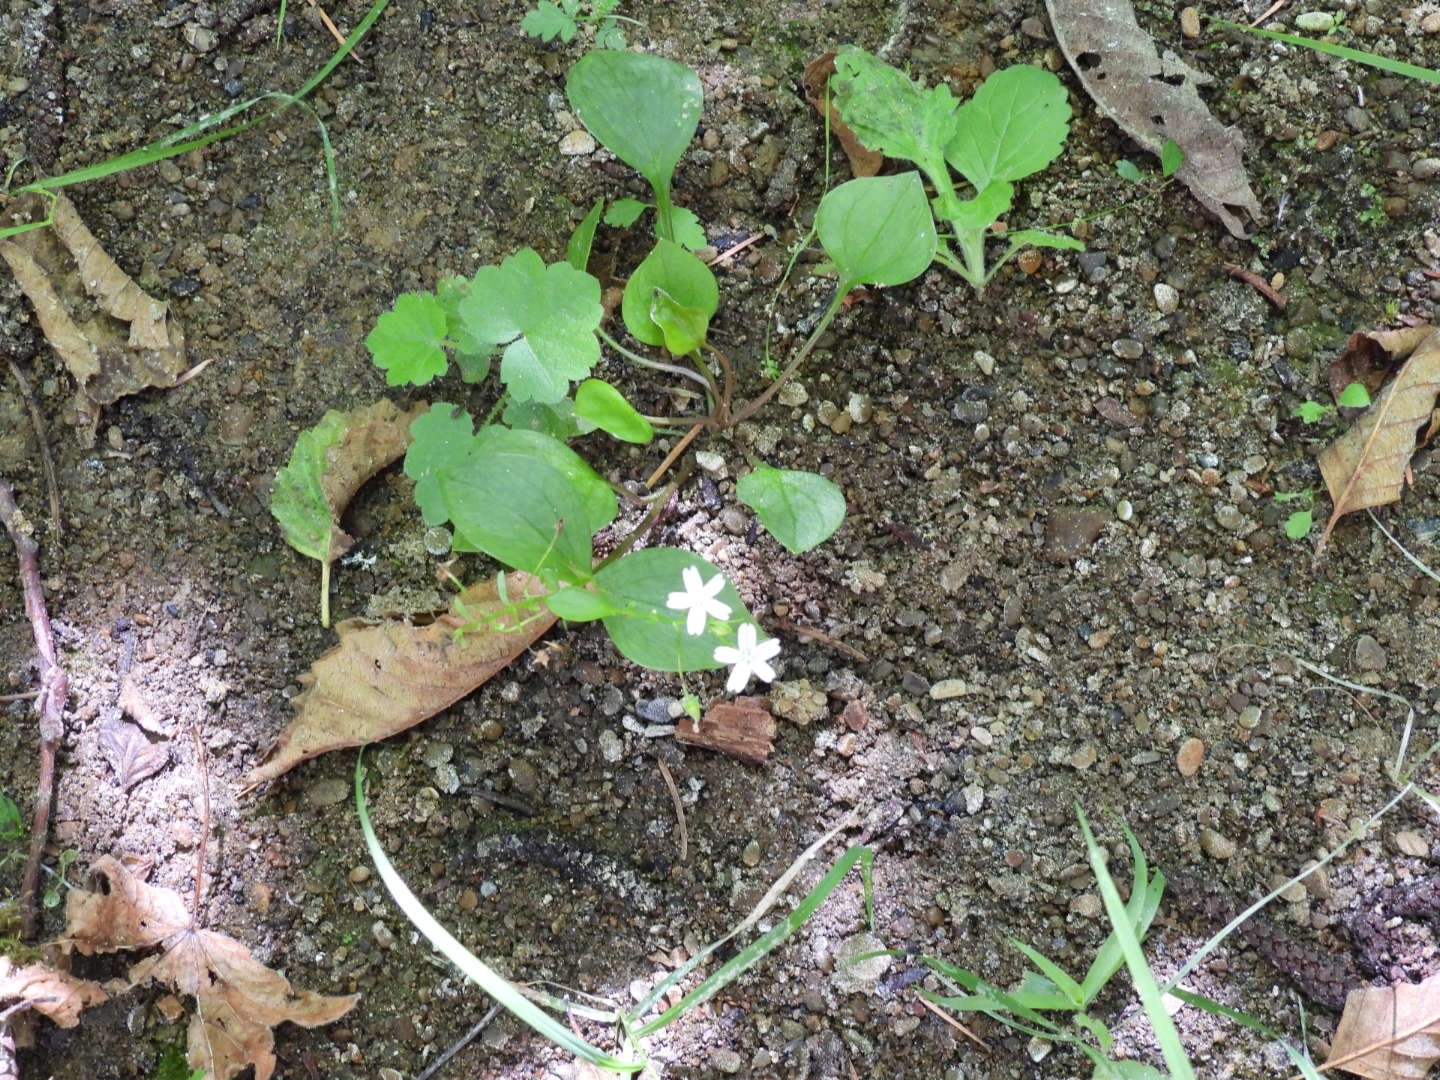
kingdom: Plantae
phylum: Tracheophyta
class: Magnoliopsida
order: Caryophyllales
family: Montiaceae
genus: Claytonia
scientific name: Claytonia sibirica
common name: Pink purslane
